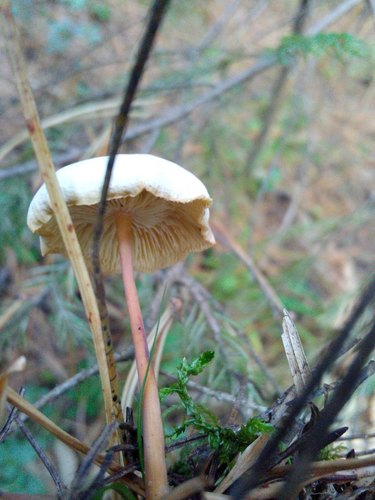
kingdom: Fungi
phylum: Basidiomycota
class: Agaricomycetes
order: Agaricales
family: Omphalotaceae
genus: Gymnopus
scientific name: Gymnopus dryophilus
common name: Penny top
